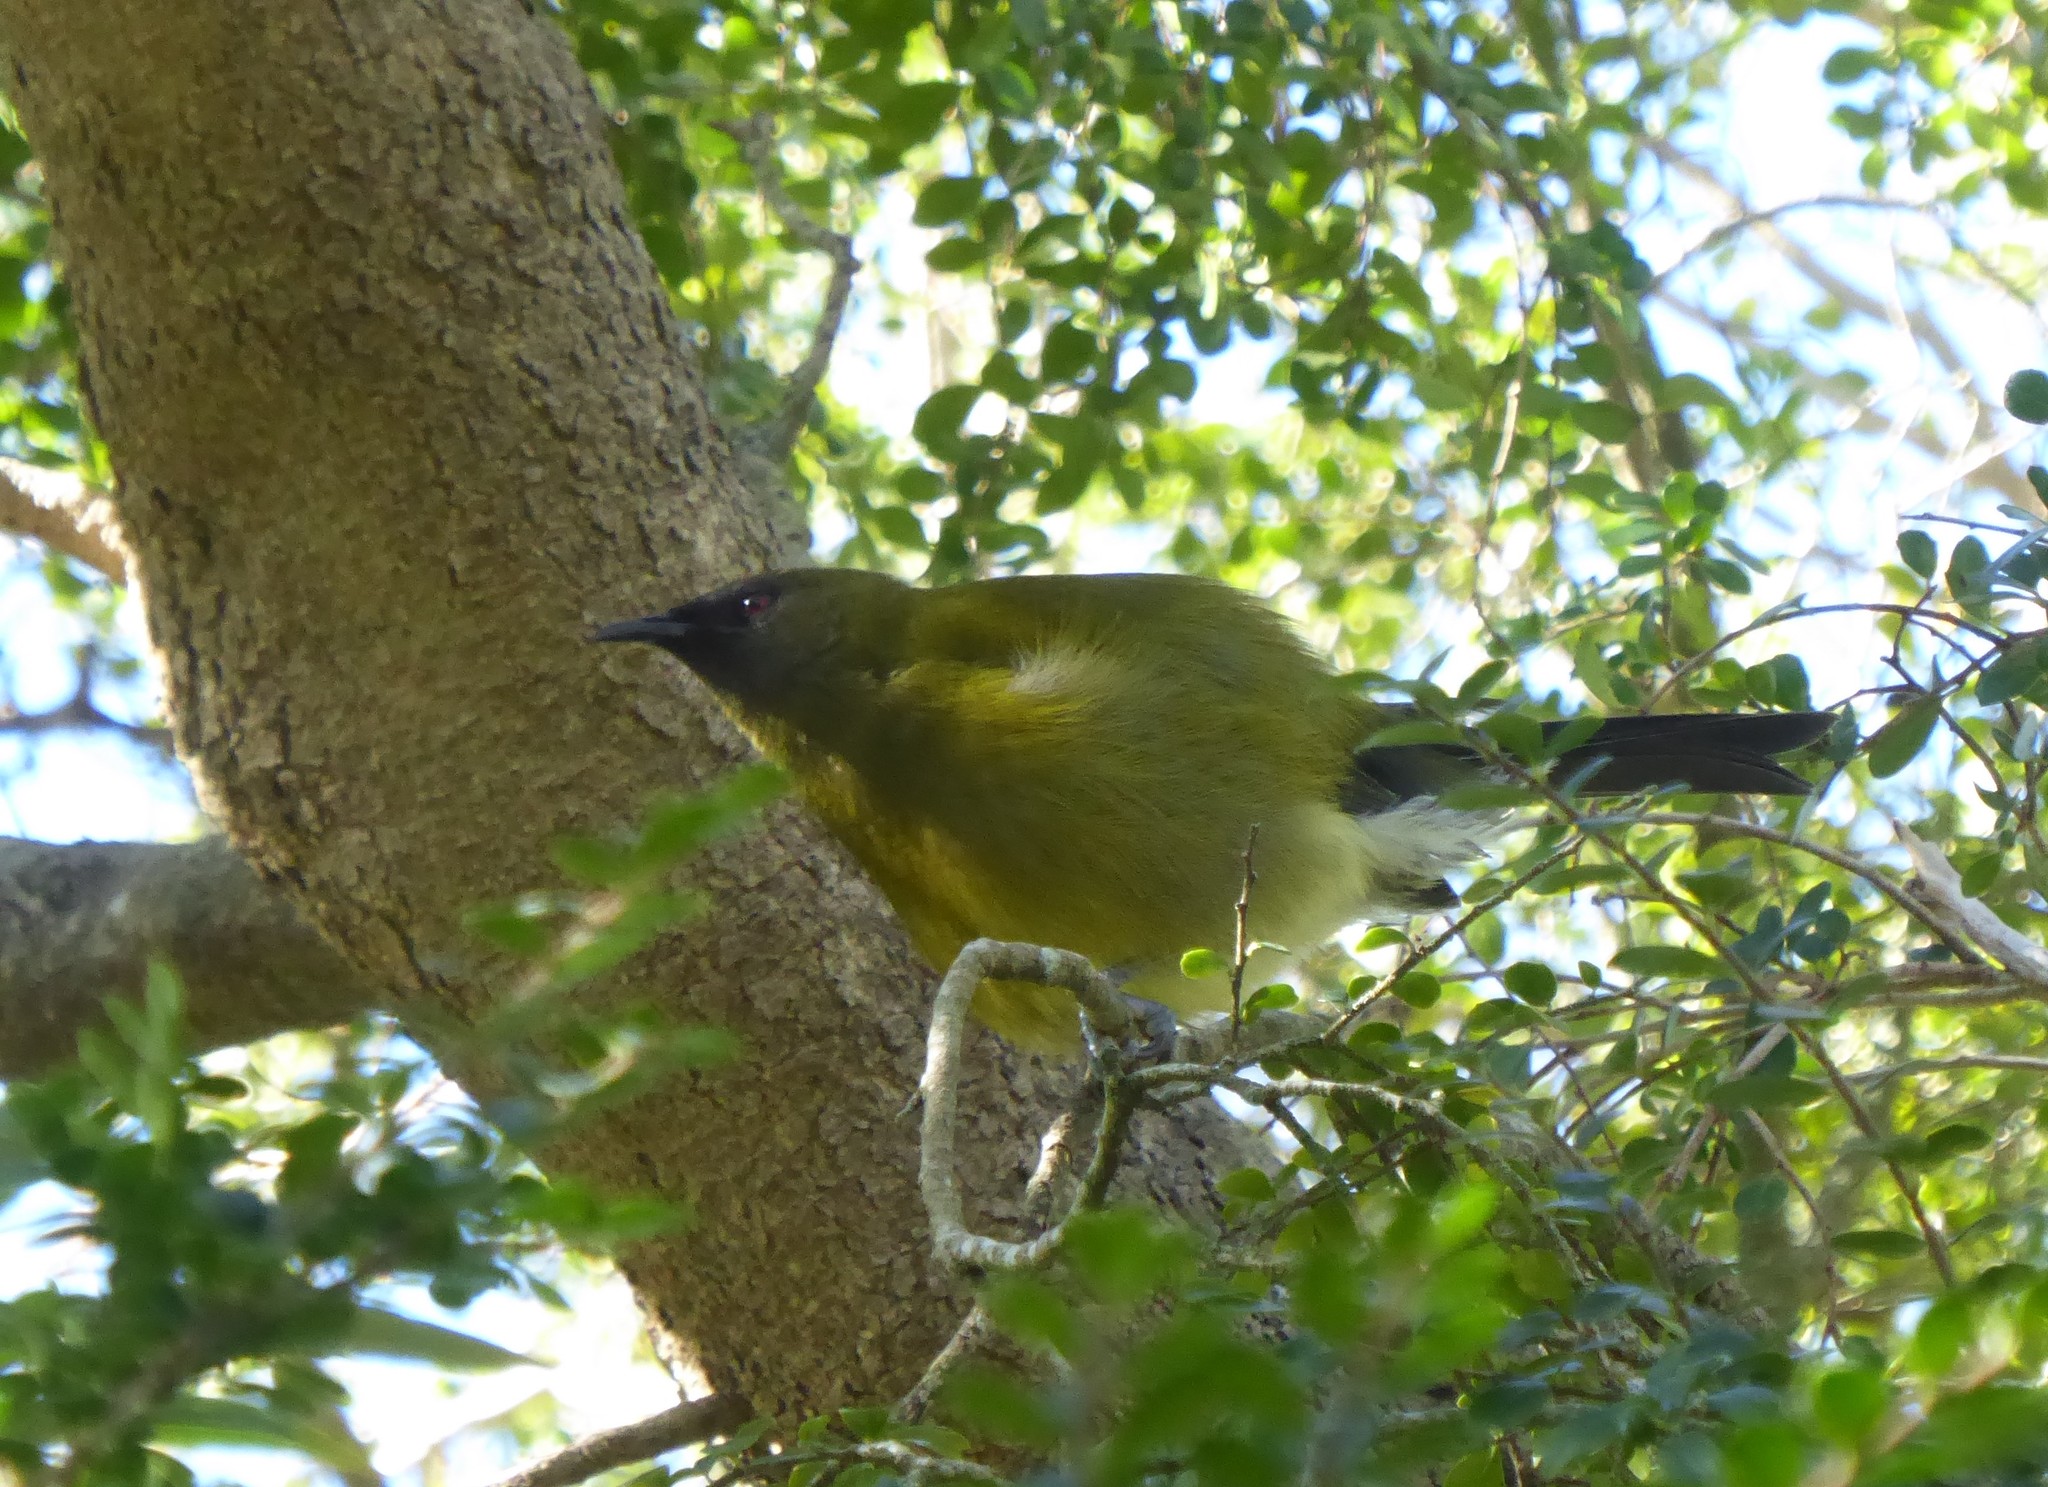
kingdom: Animalia
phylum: Chordata
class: Aves
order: Passeriformes
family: Meliphagidae
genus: Anthornis
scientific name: Anthornis melanura
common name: New zealand bellbird
